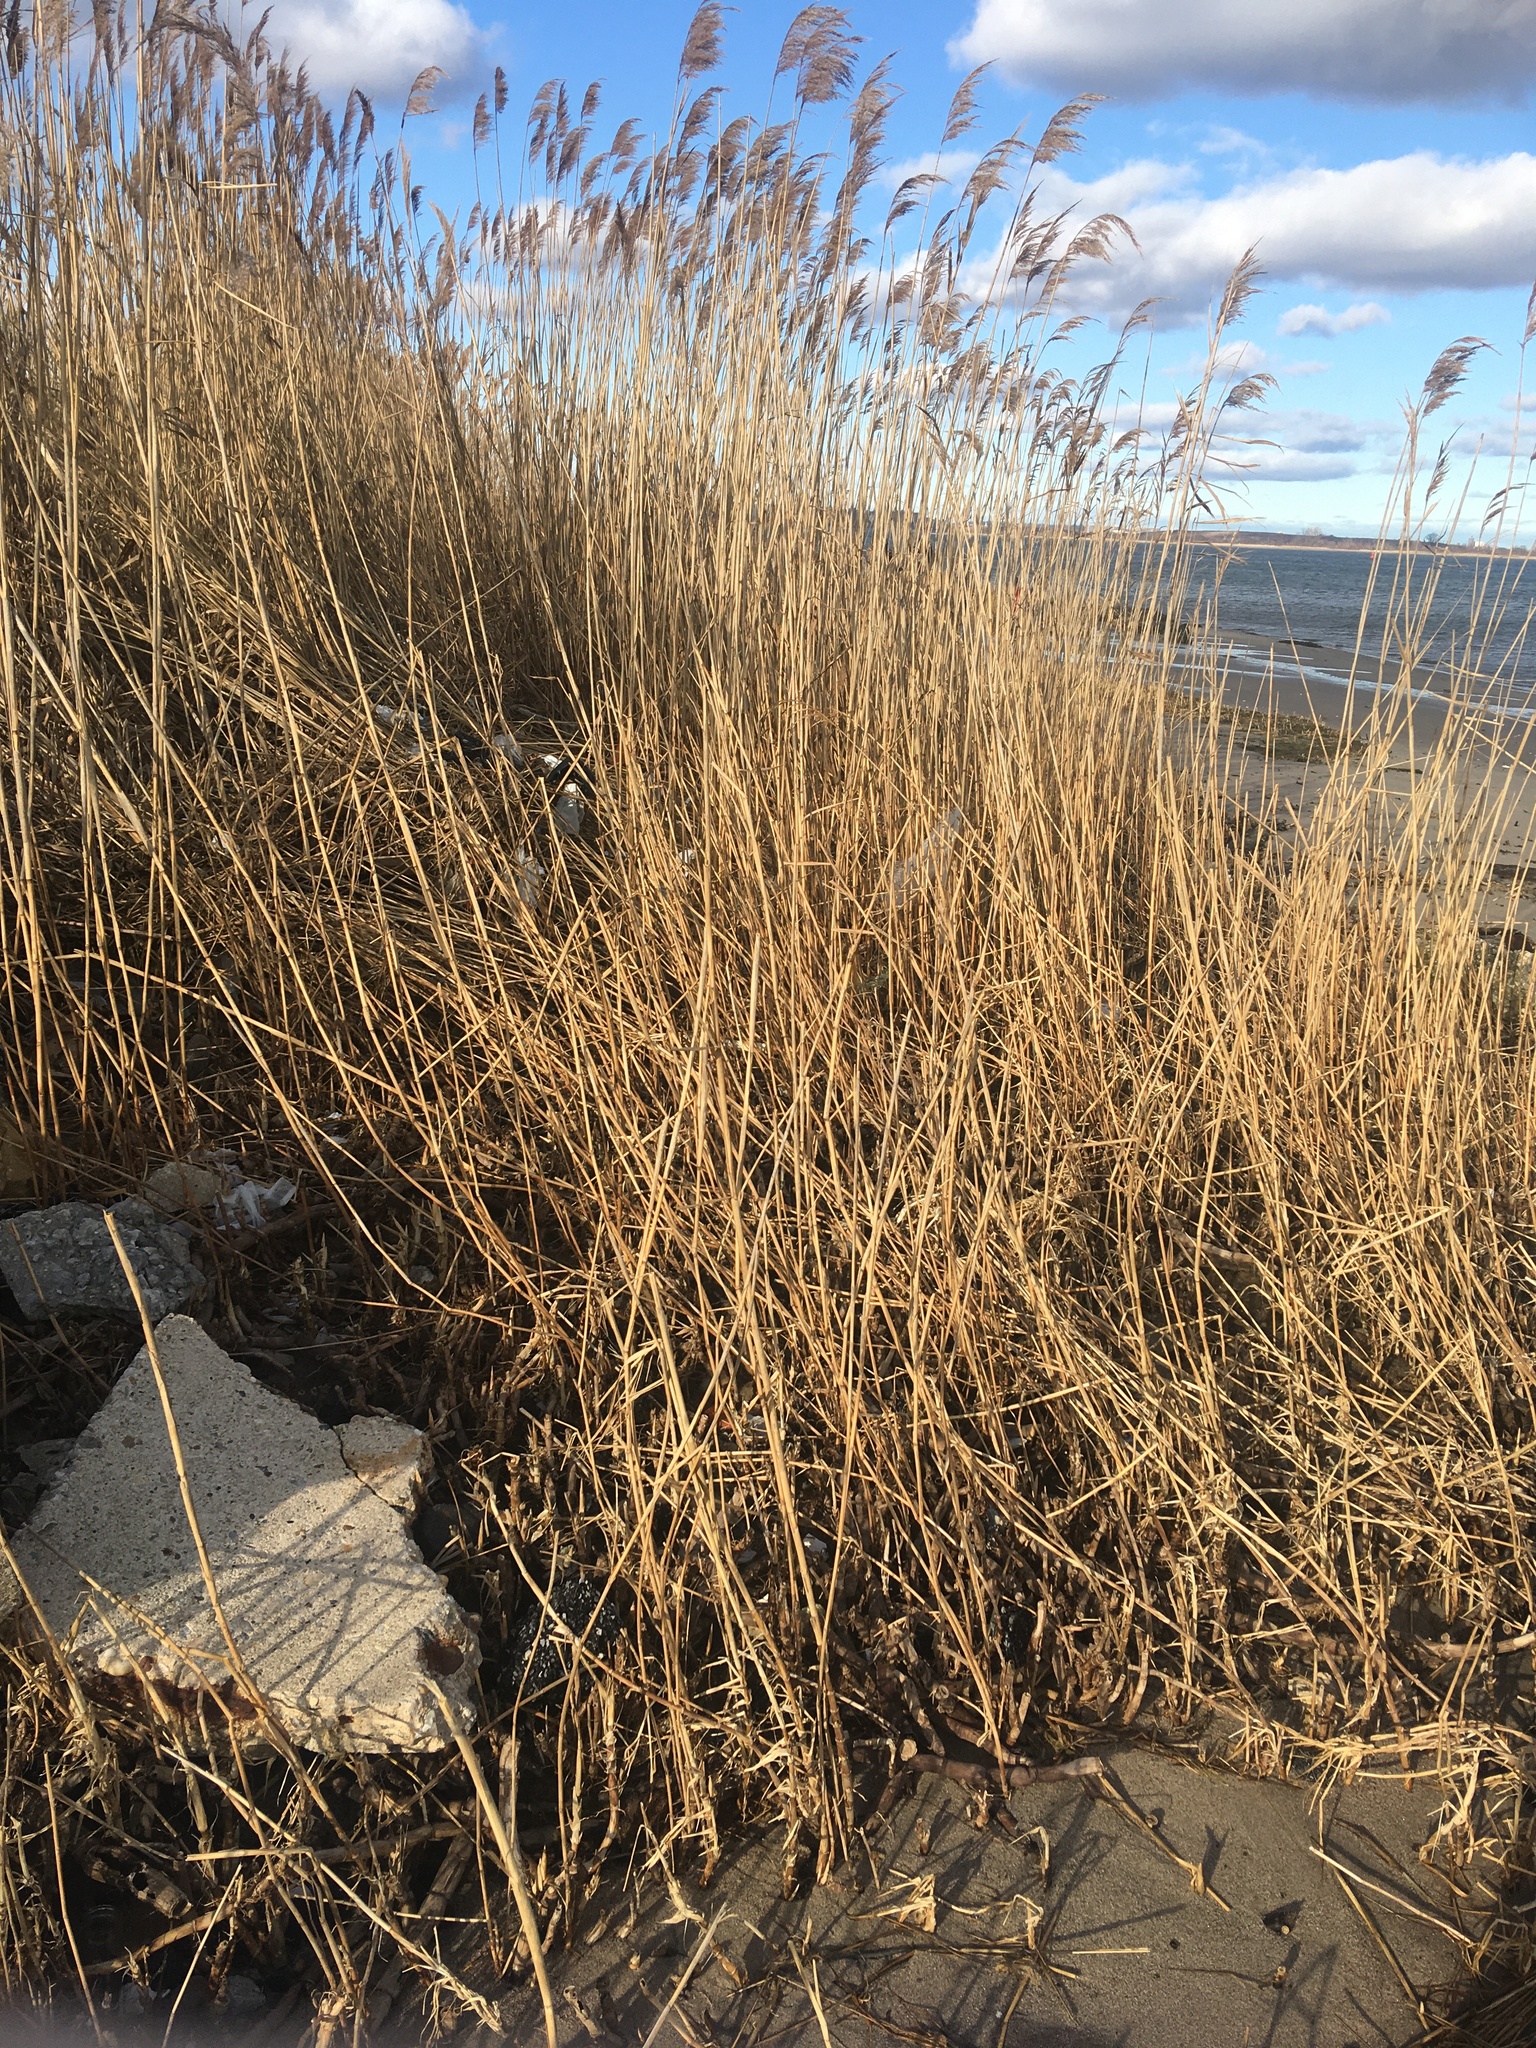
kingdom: Plantae
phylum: Tracheophyta
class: Liliopsida
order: Poales
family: Poaceae
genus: Phragmites
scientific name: Phragmites australis
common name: Common reed
